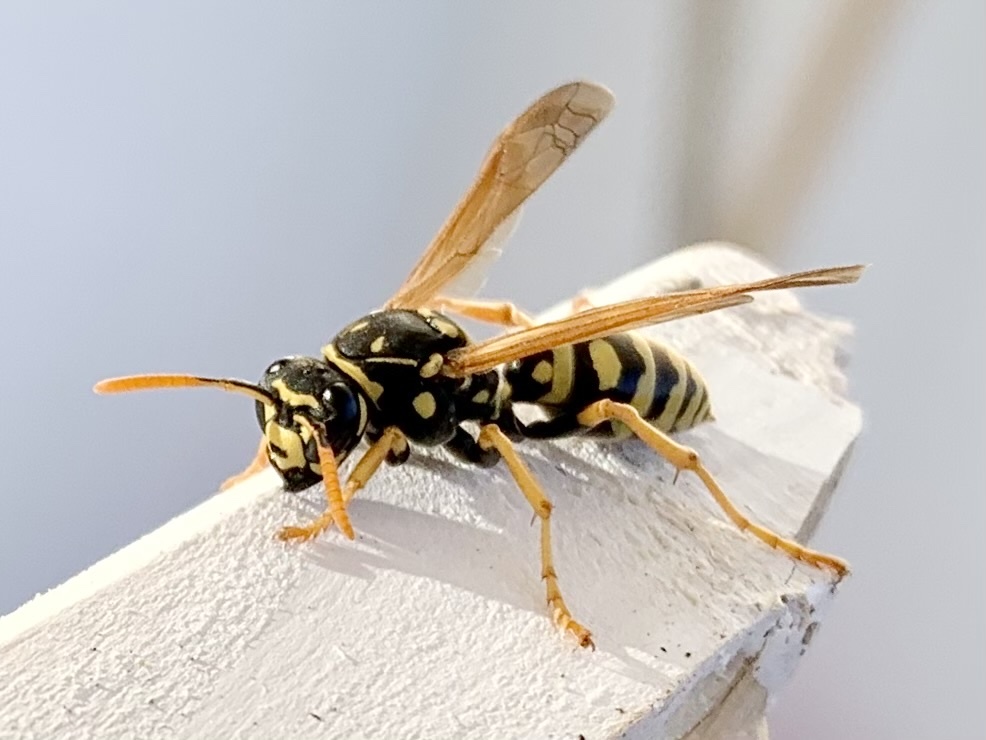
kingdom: Animalia
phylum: Arthropoda
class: Insecta
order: Hymenoptera
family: Eumenidae
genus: Polistes
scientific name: Polistes dominula
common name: Paper wasp
